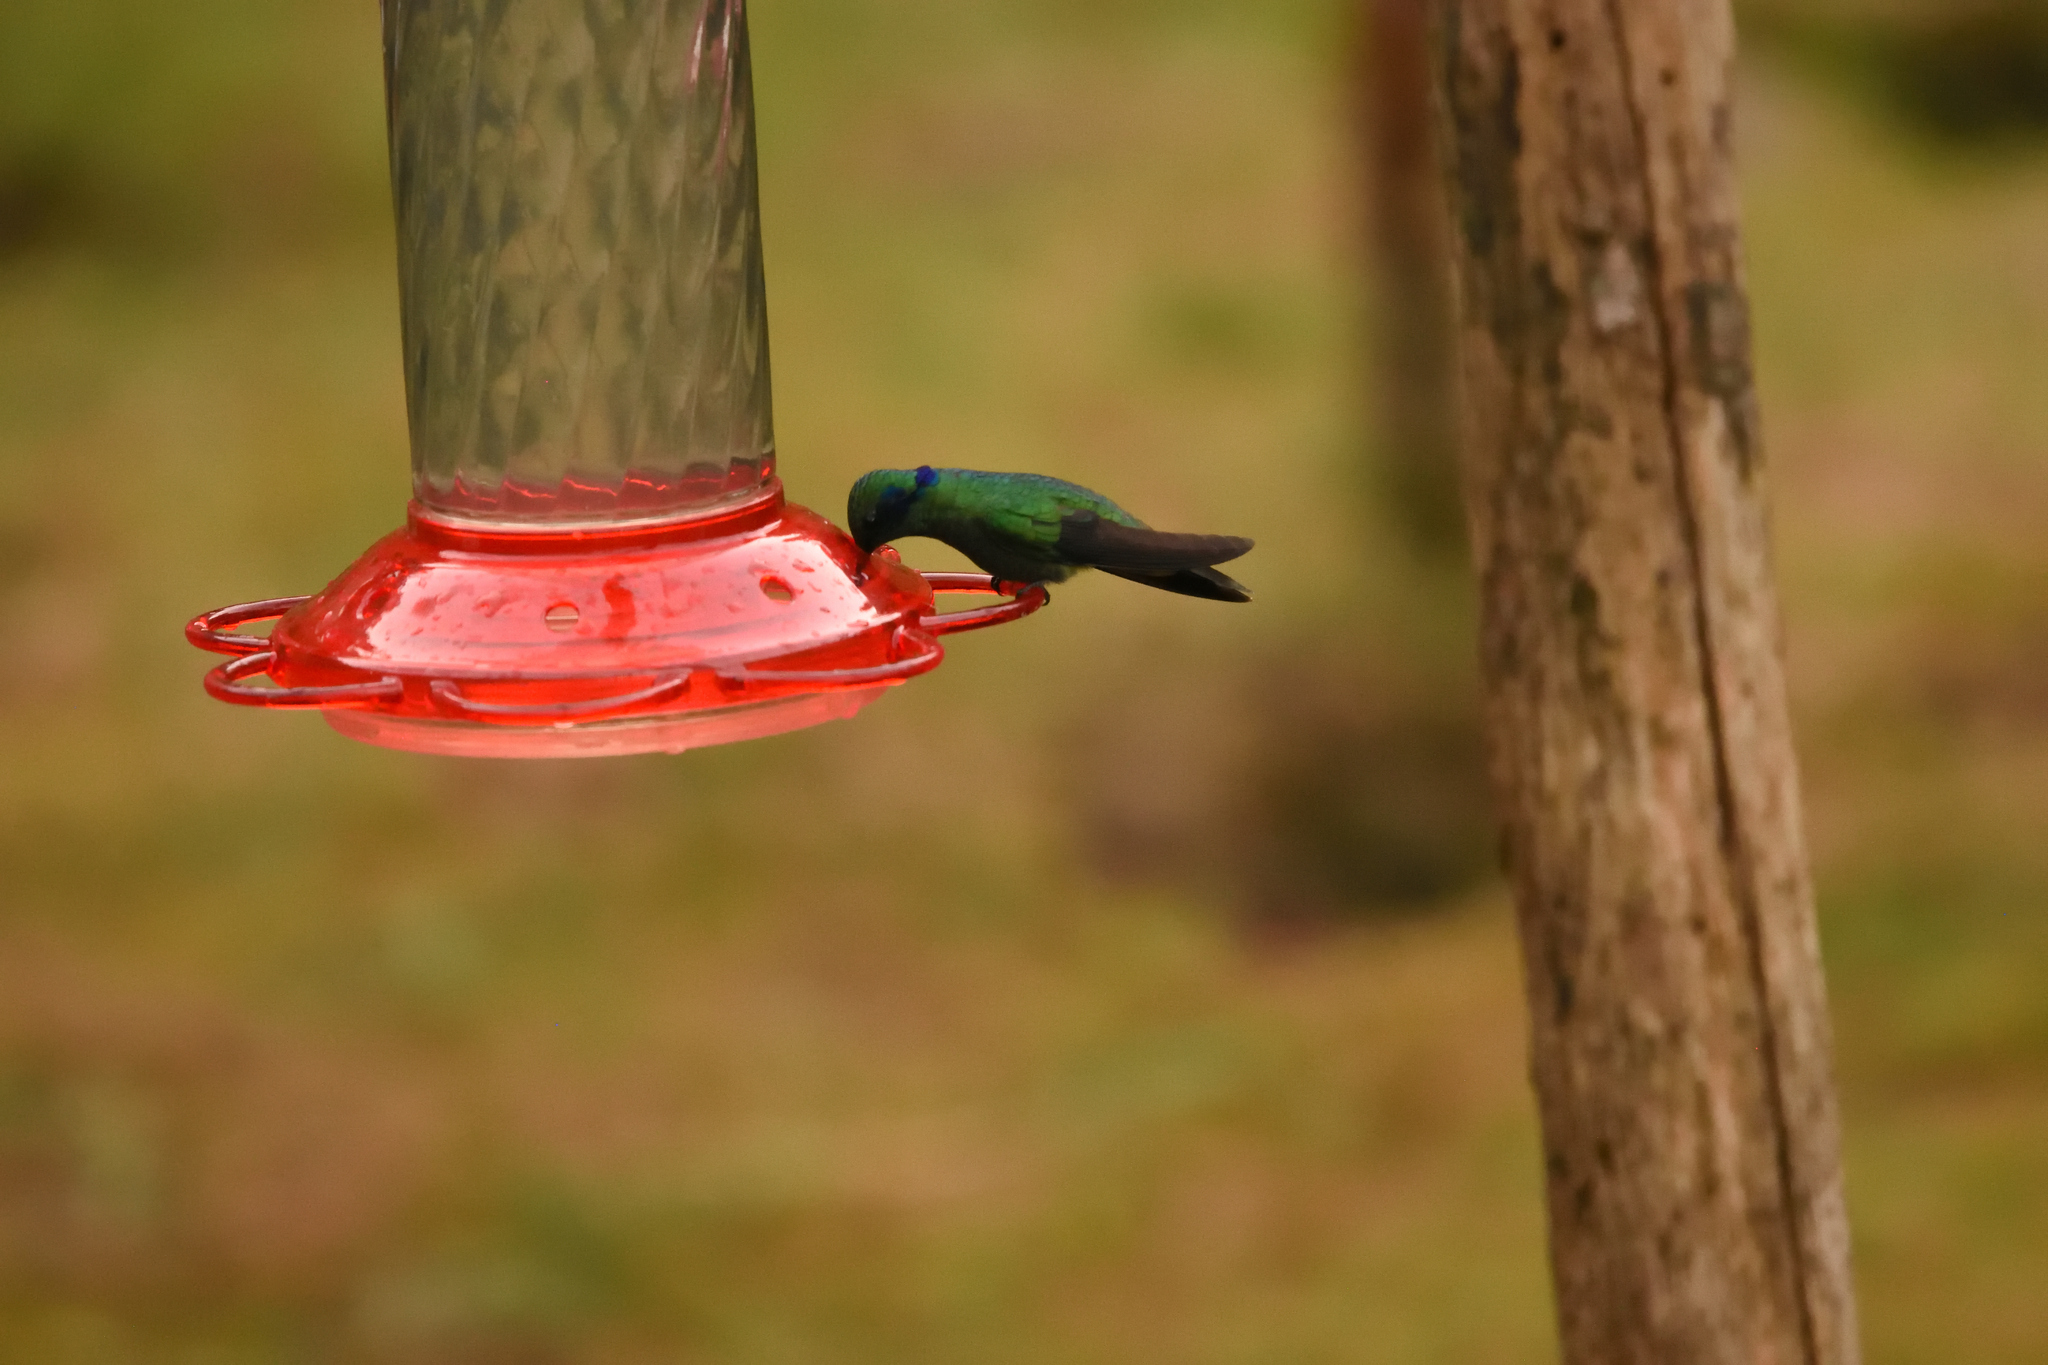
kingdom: Animalia
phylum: Chordata
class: Aves
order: Apodiformes
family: Trochilidae
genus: Colibri
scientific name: Colibri cyanotus
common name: Lesser violetear
